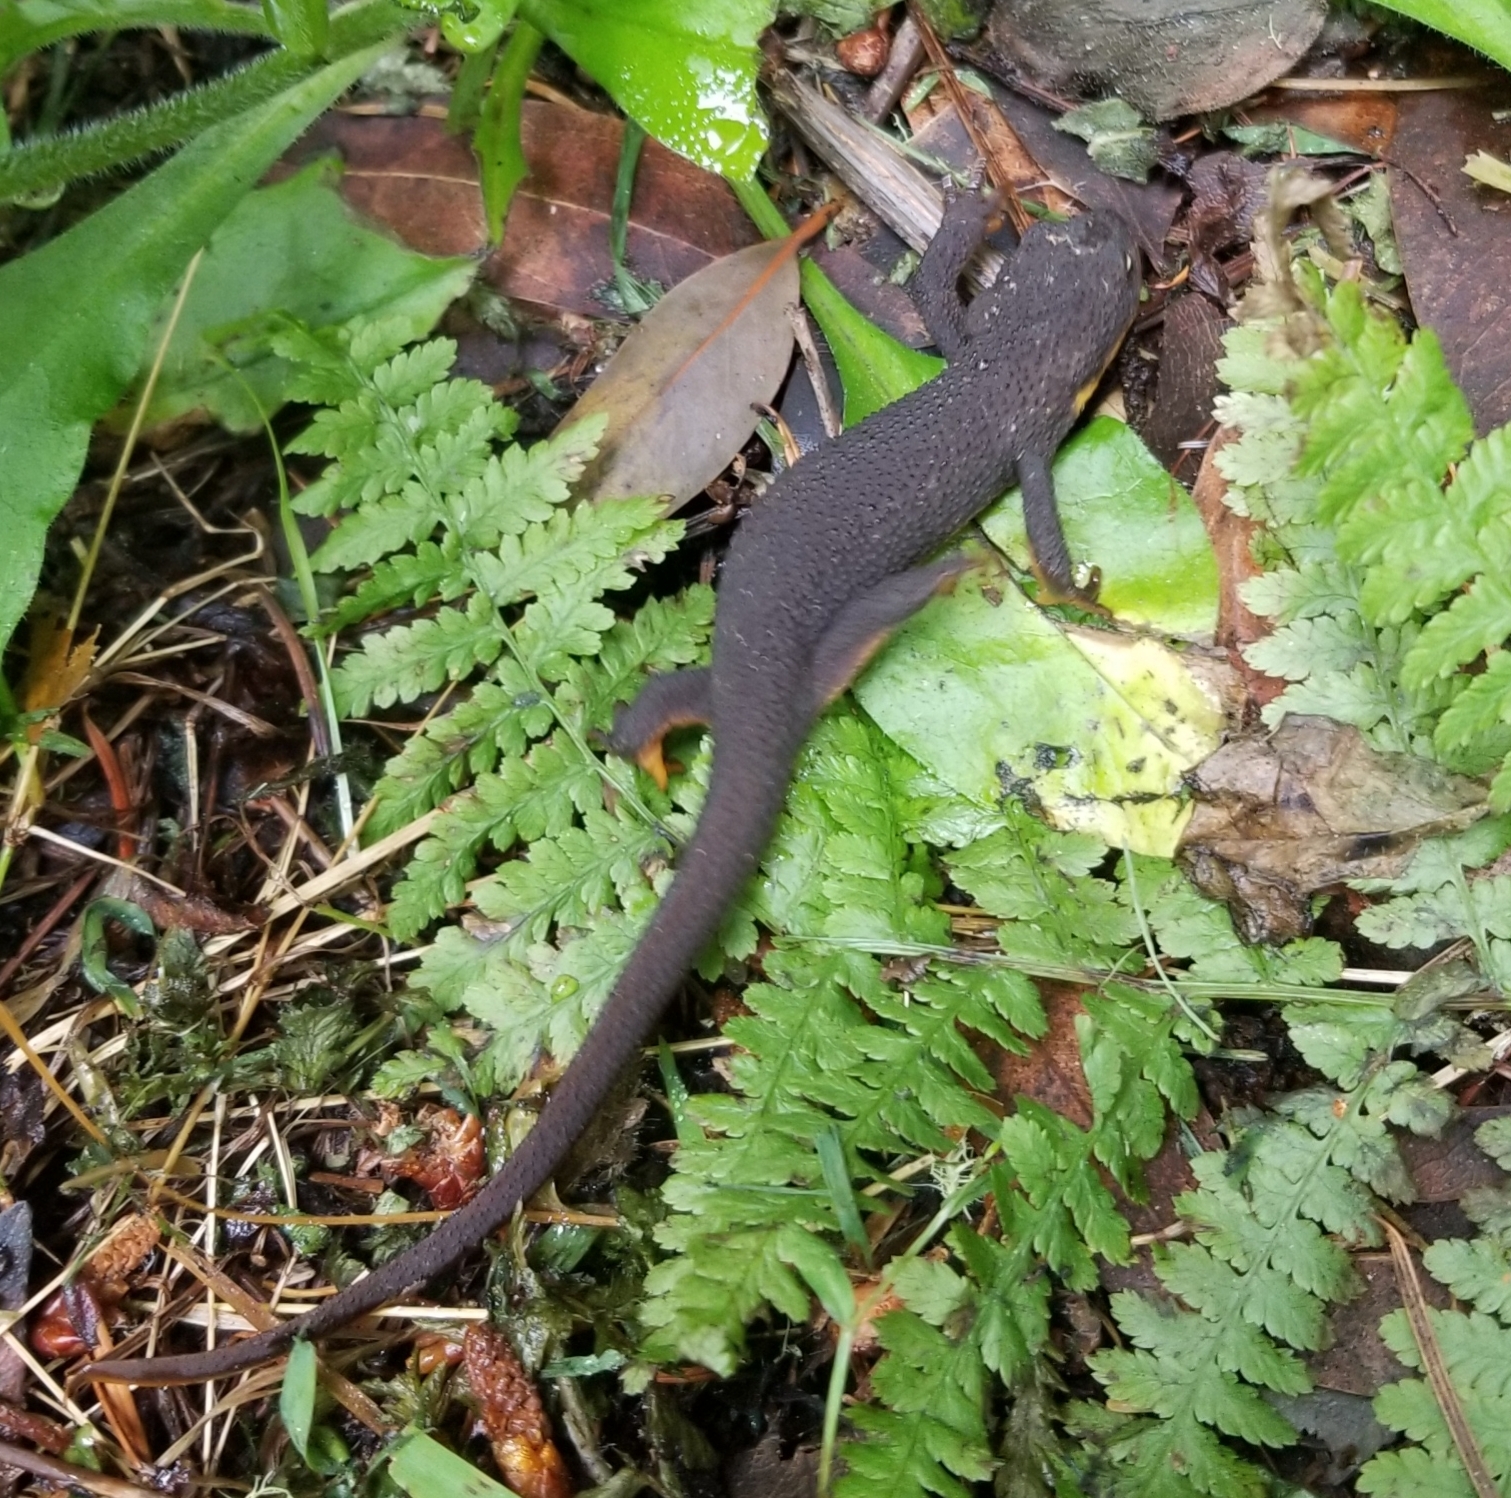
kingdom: Animalia
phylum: Chordata
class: Amphibia
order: Caudata
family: Salamandridae
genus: Taricha
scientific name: Taricha granulosa
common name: Roughskin newt
